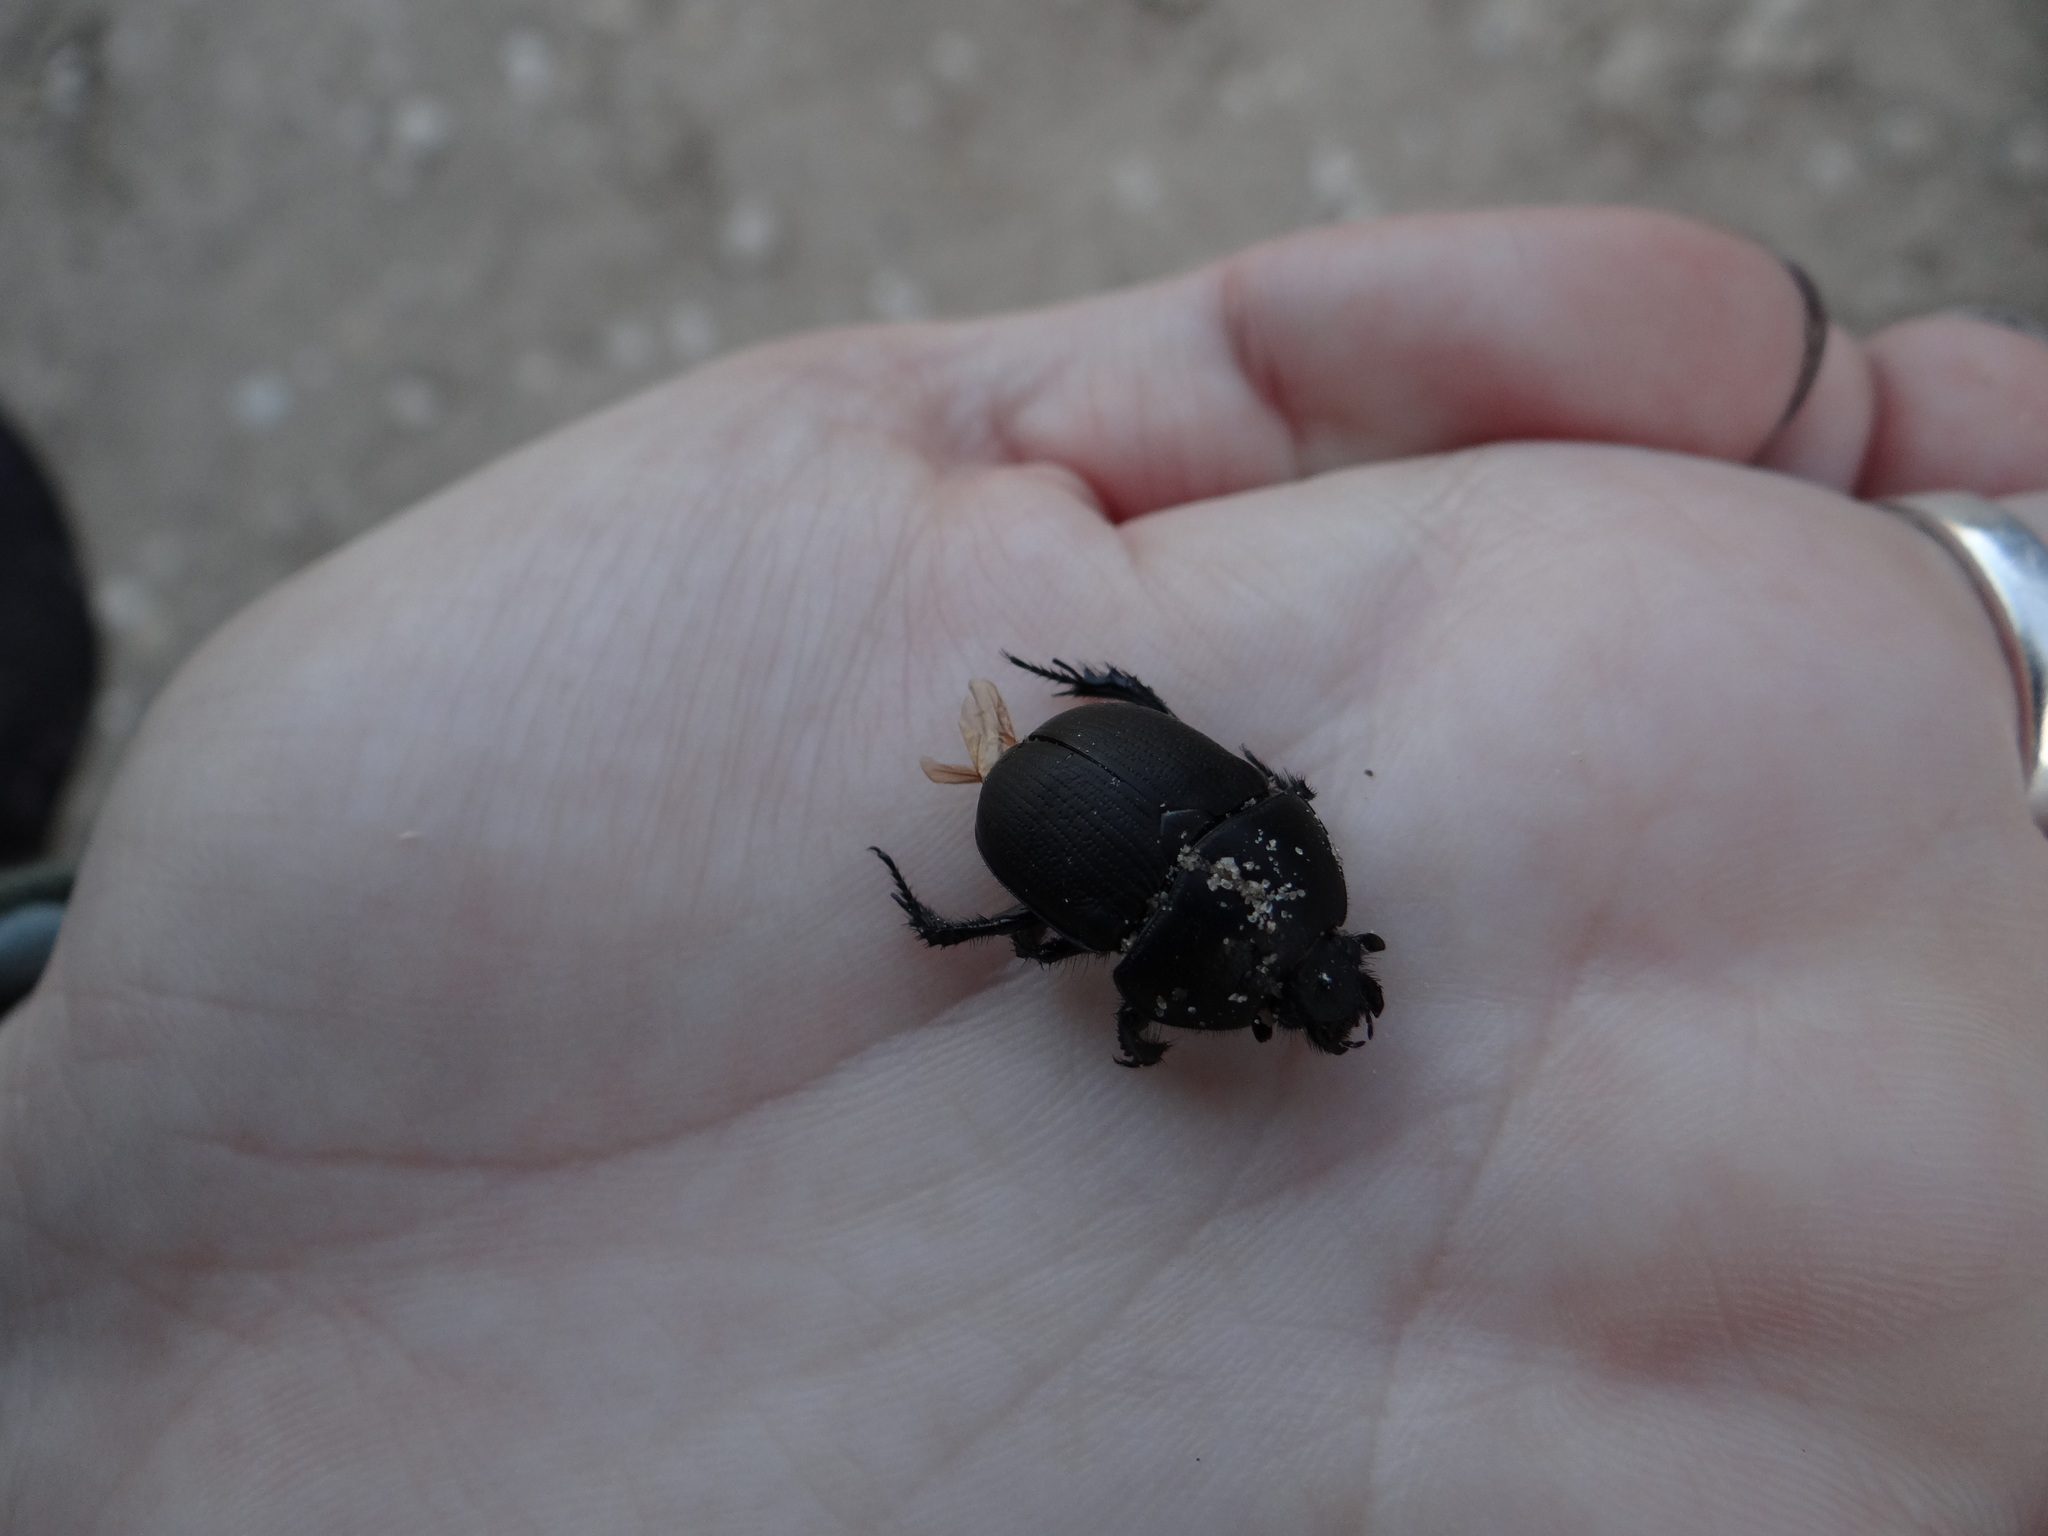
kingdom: Animalia
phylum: Arthropoda
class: Insecta
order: Coleoptera
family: Geotrupidae
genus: Geohowdenius
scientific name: Geohowdenius opacus
